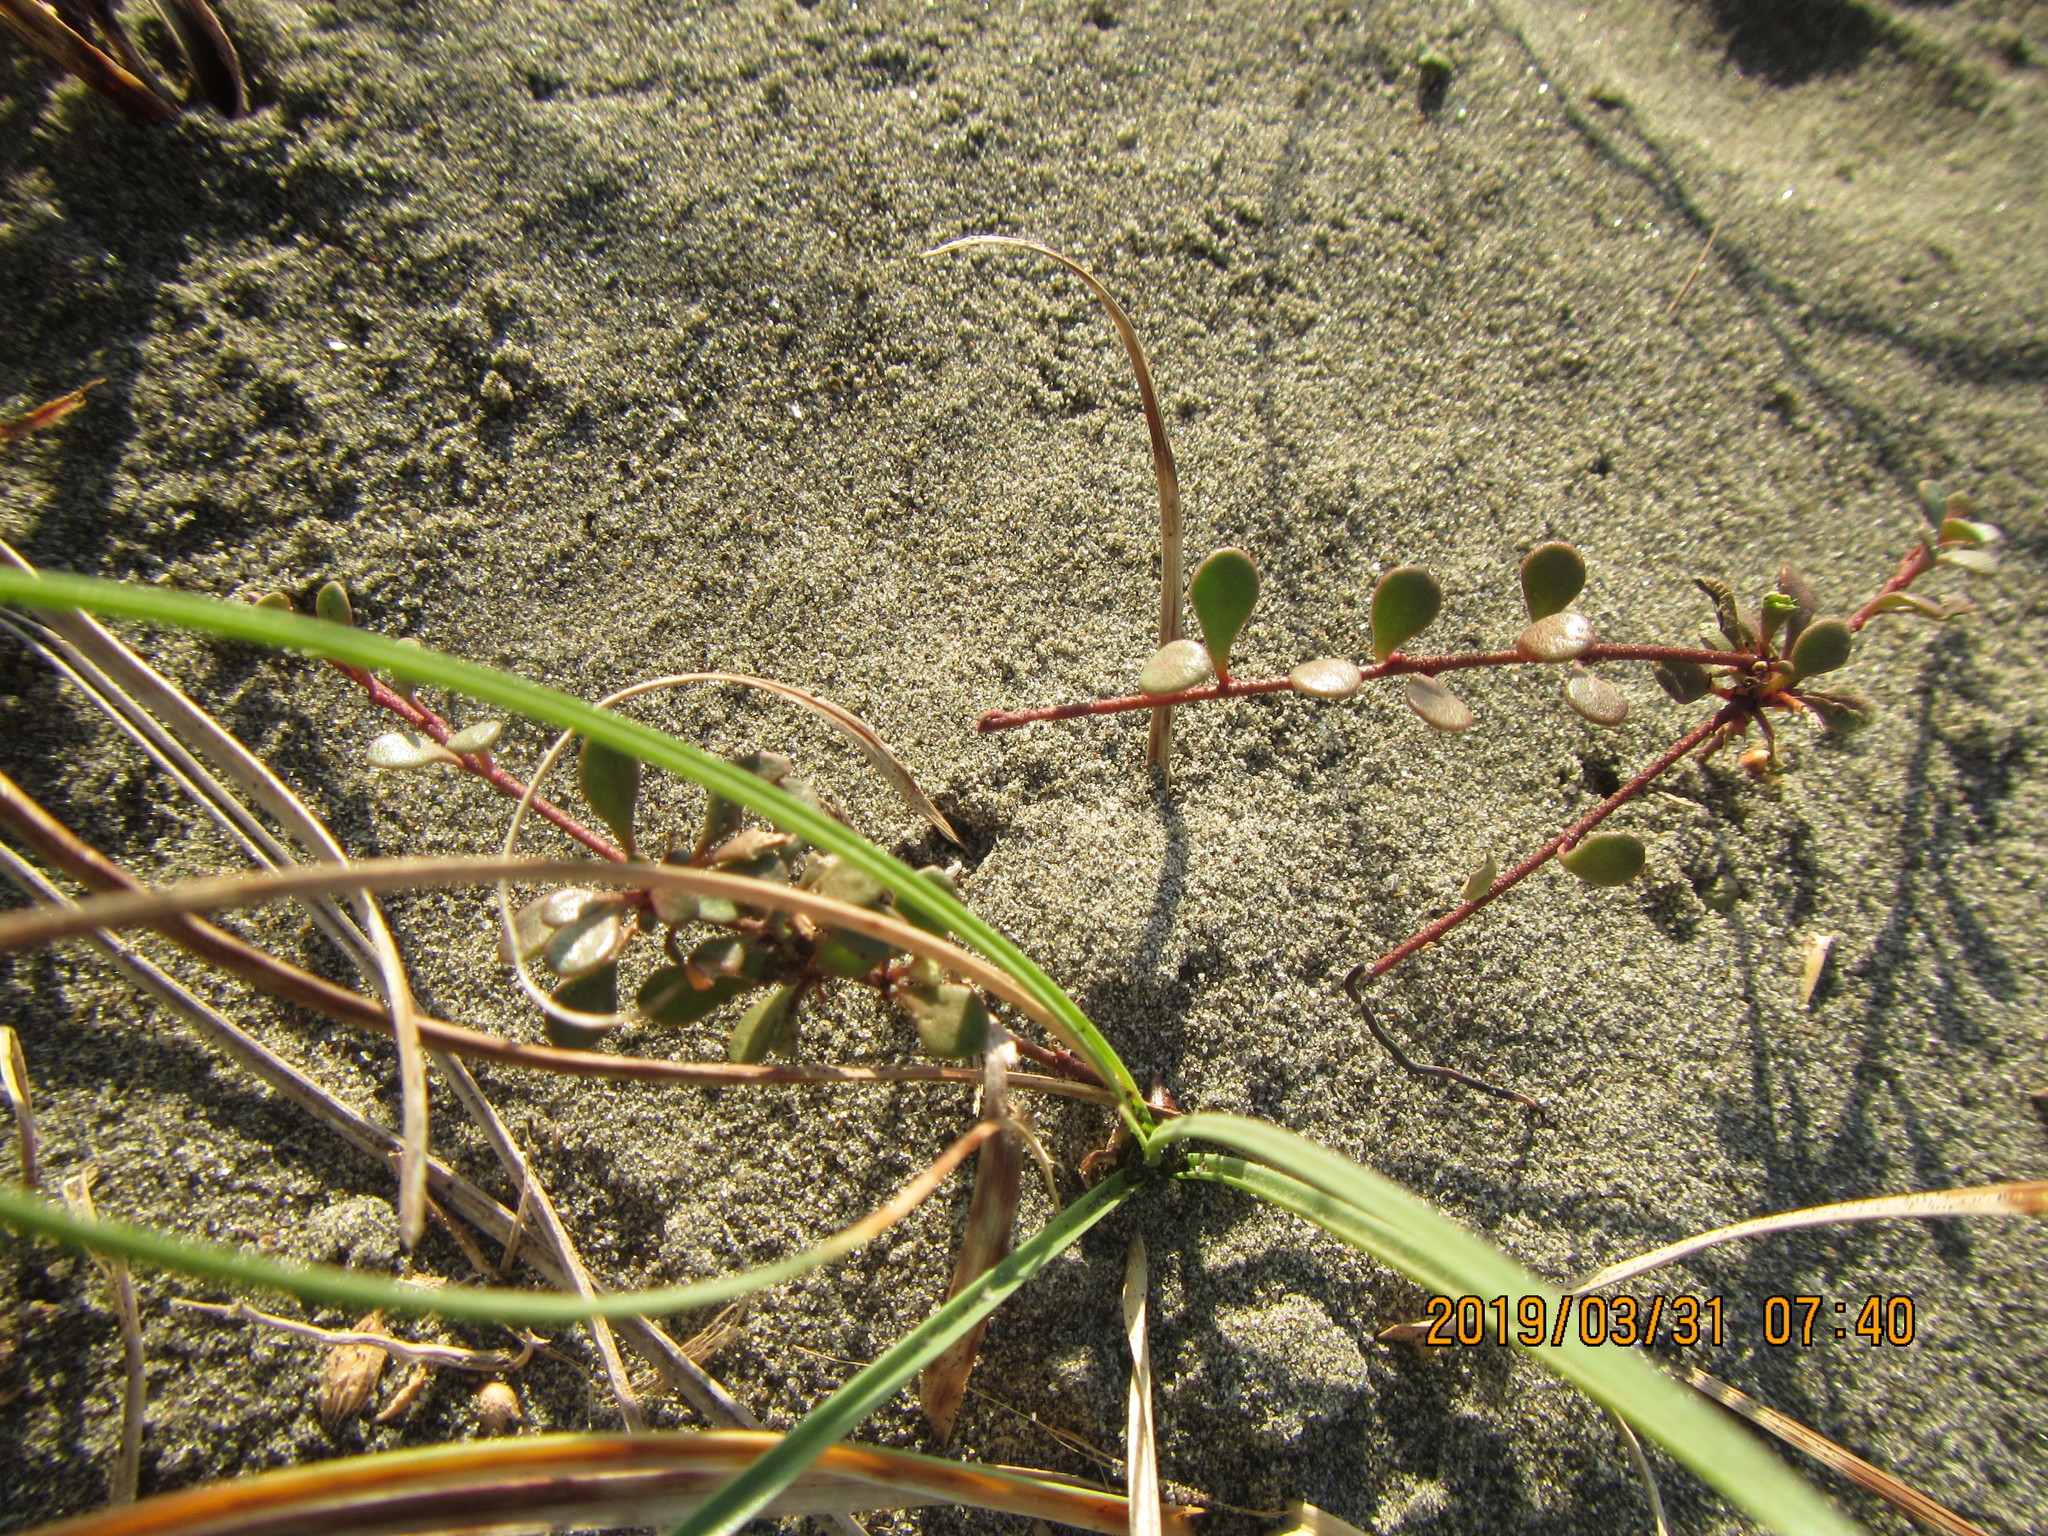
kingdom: Plantae
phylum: Tracheophyta
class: Magnoliopsida
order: Ericales
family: Primulaceae
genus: Samolus
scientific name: Samolus repens
